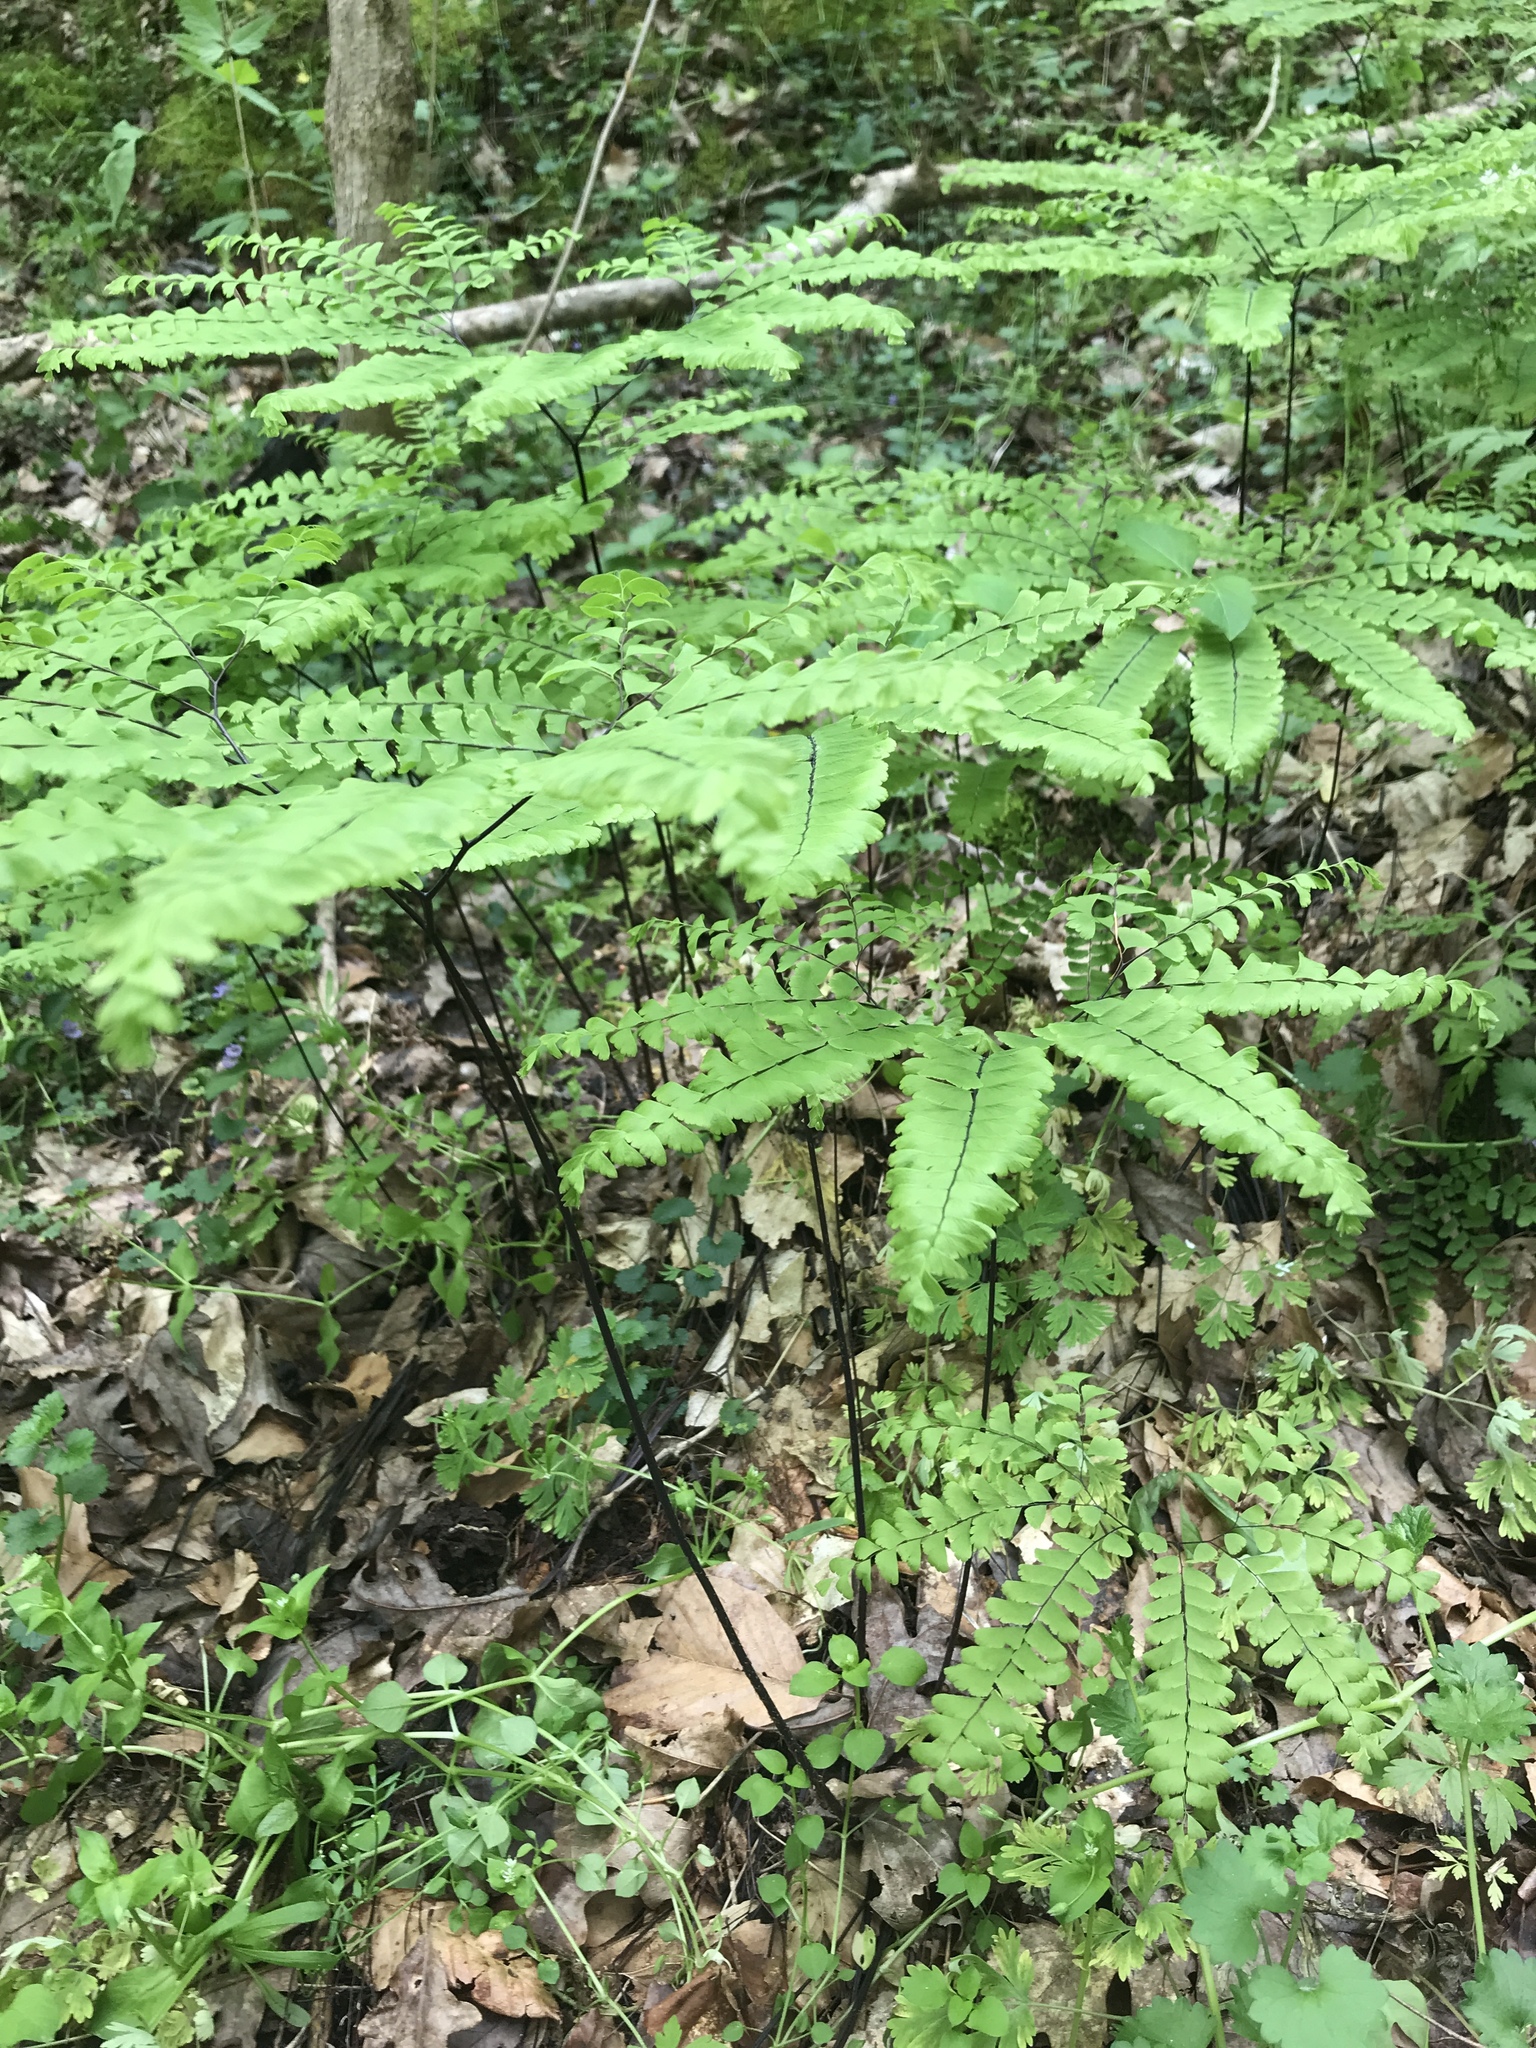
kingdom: Plantae
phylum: Tracheophyta
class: Polypodiopsida
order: Polypodiales
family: Pteridaceae
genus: Adiantum
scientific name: Adiantum pedatum
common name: Five-finger fern
